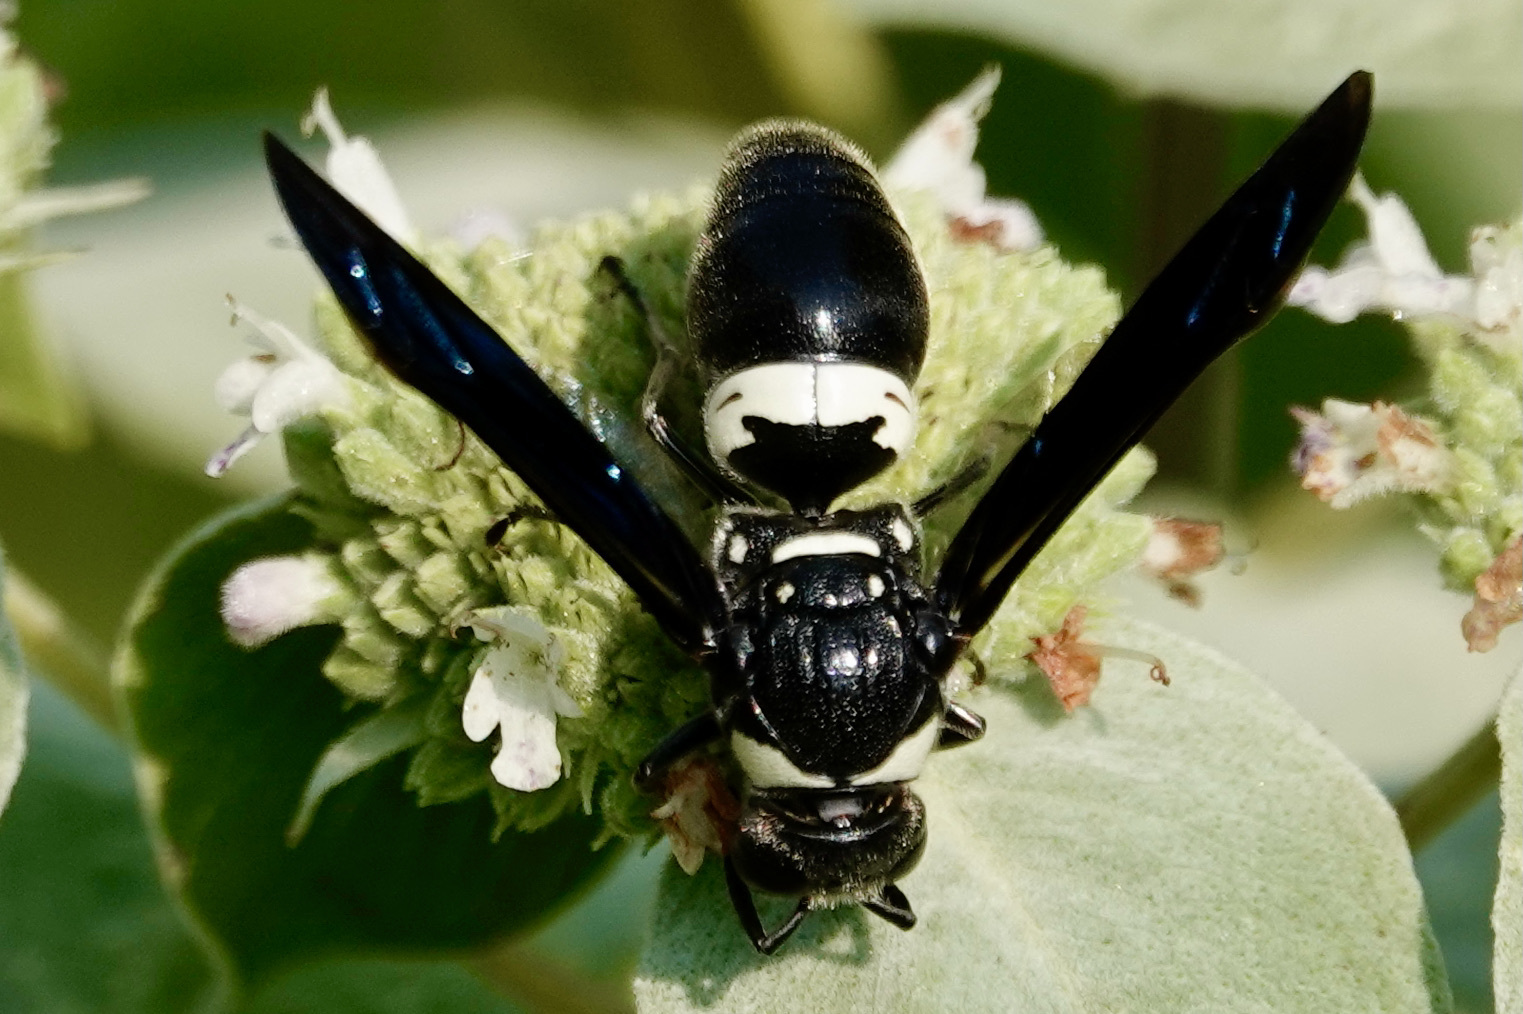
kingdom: Animalia
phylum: Arthropoda
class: Insecta
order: Hymenoptera
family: Eumenidae
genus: Monobia
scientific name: Monobia quadridens
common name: Four-toothed mason wasp
